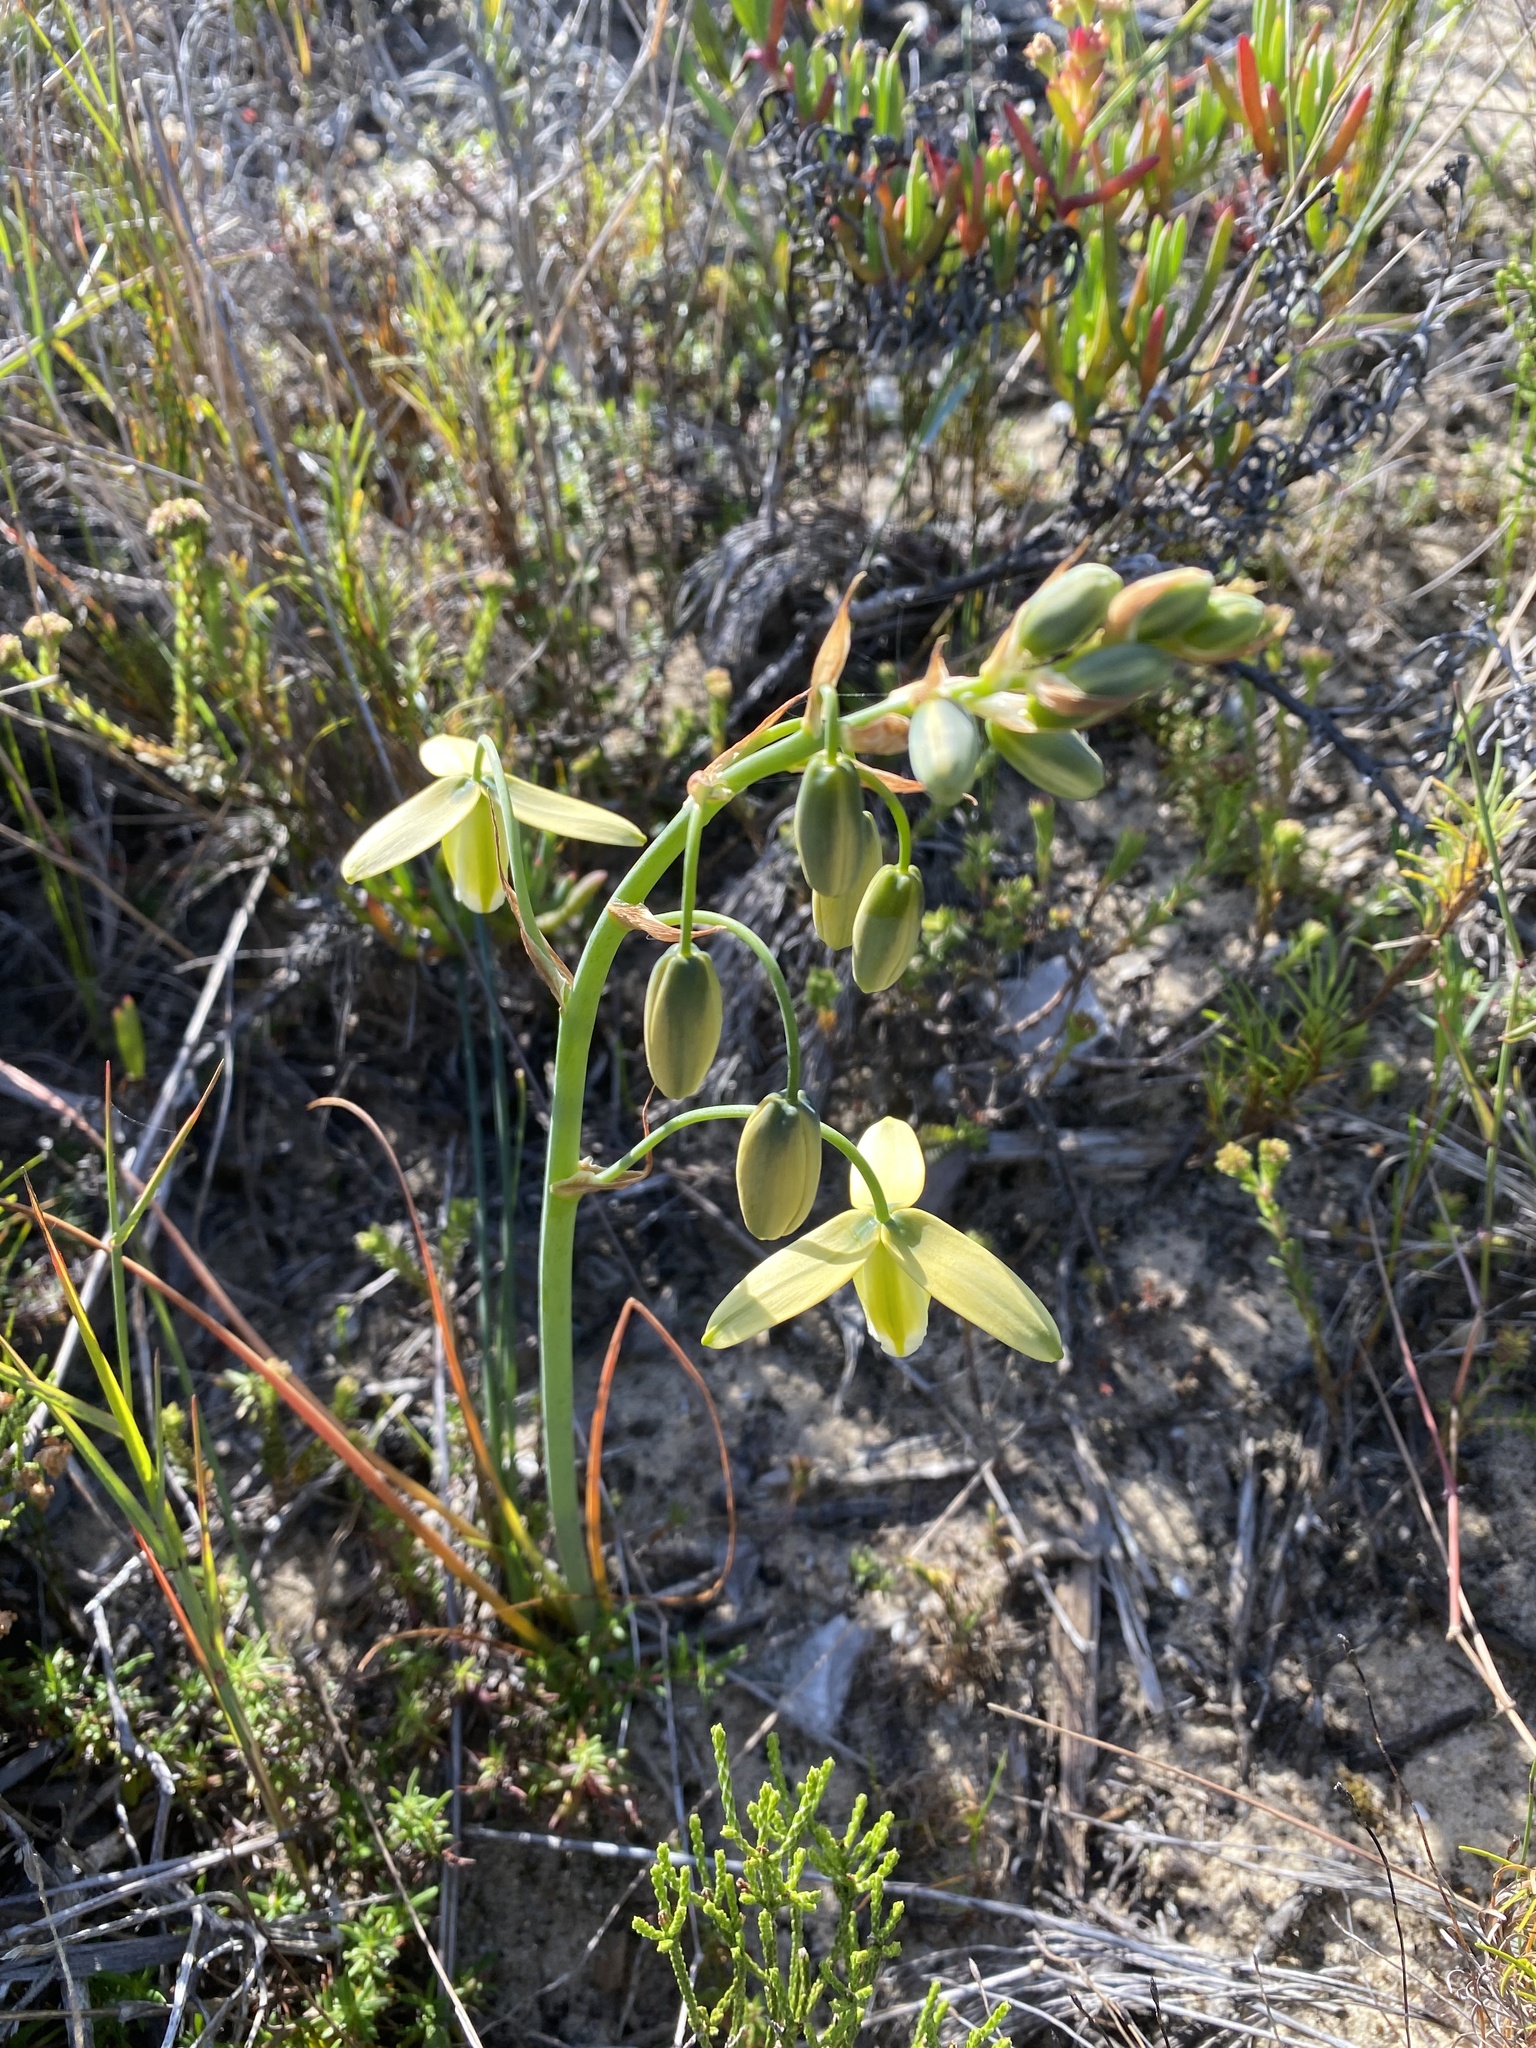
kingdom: Plantae
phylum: Tracheophyta
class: Liliopsida
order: Asparagales
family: Asparagaceae
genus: Albuca
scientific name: Albuca juncifolia
